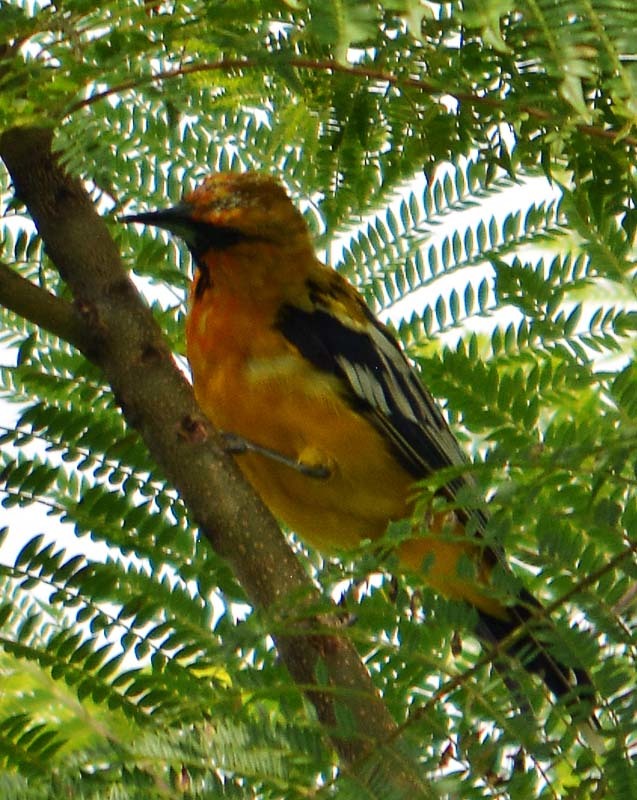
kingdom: Animalia
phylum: Chordata
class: Aves
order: Passeriformes
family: Icteridae
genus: Icterus
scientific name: Icterus pustulatus
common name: Streak-backed oriole
